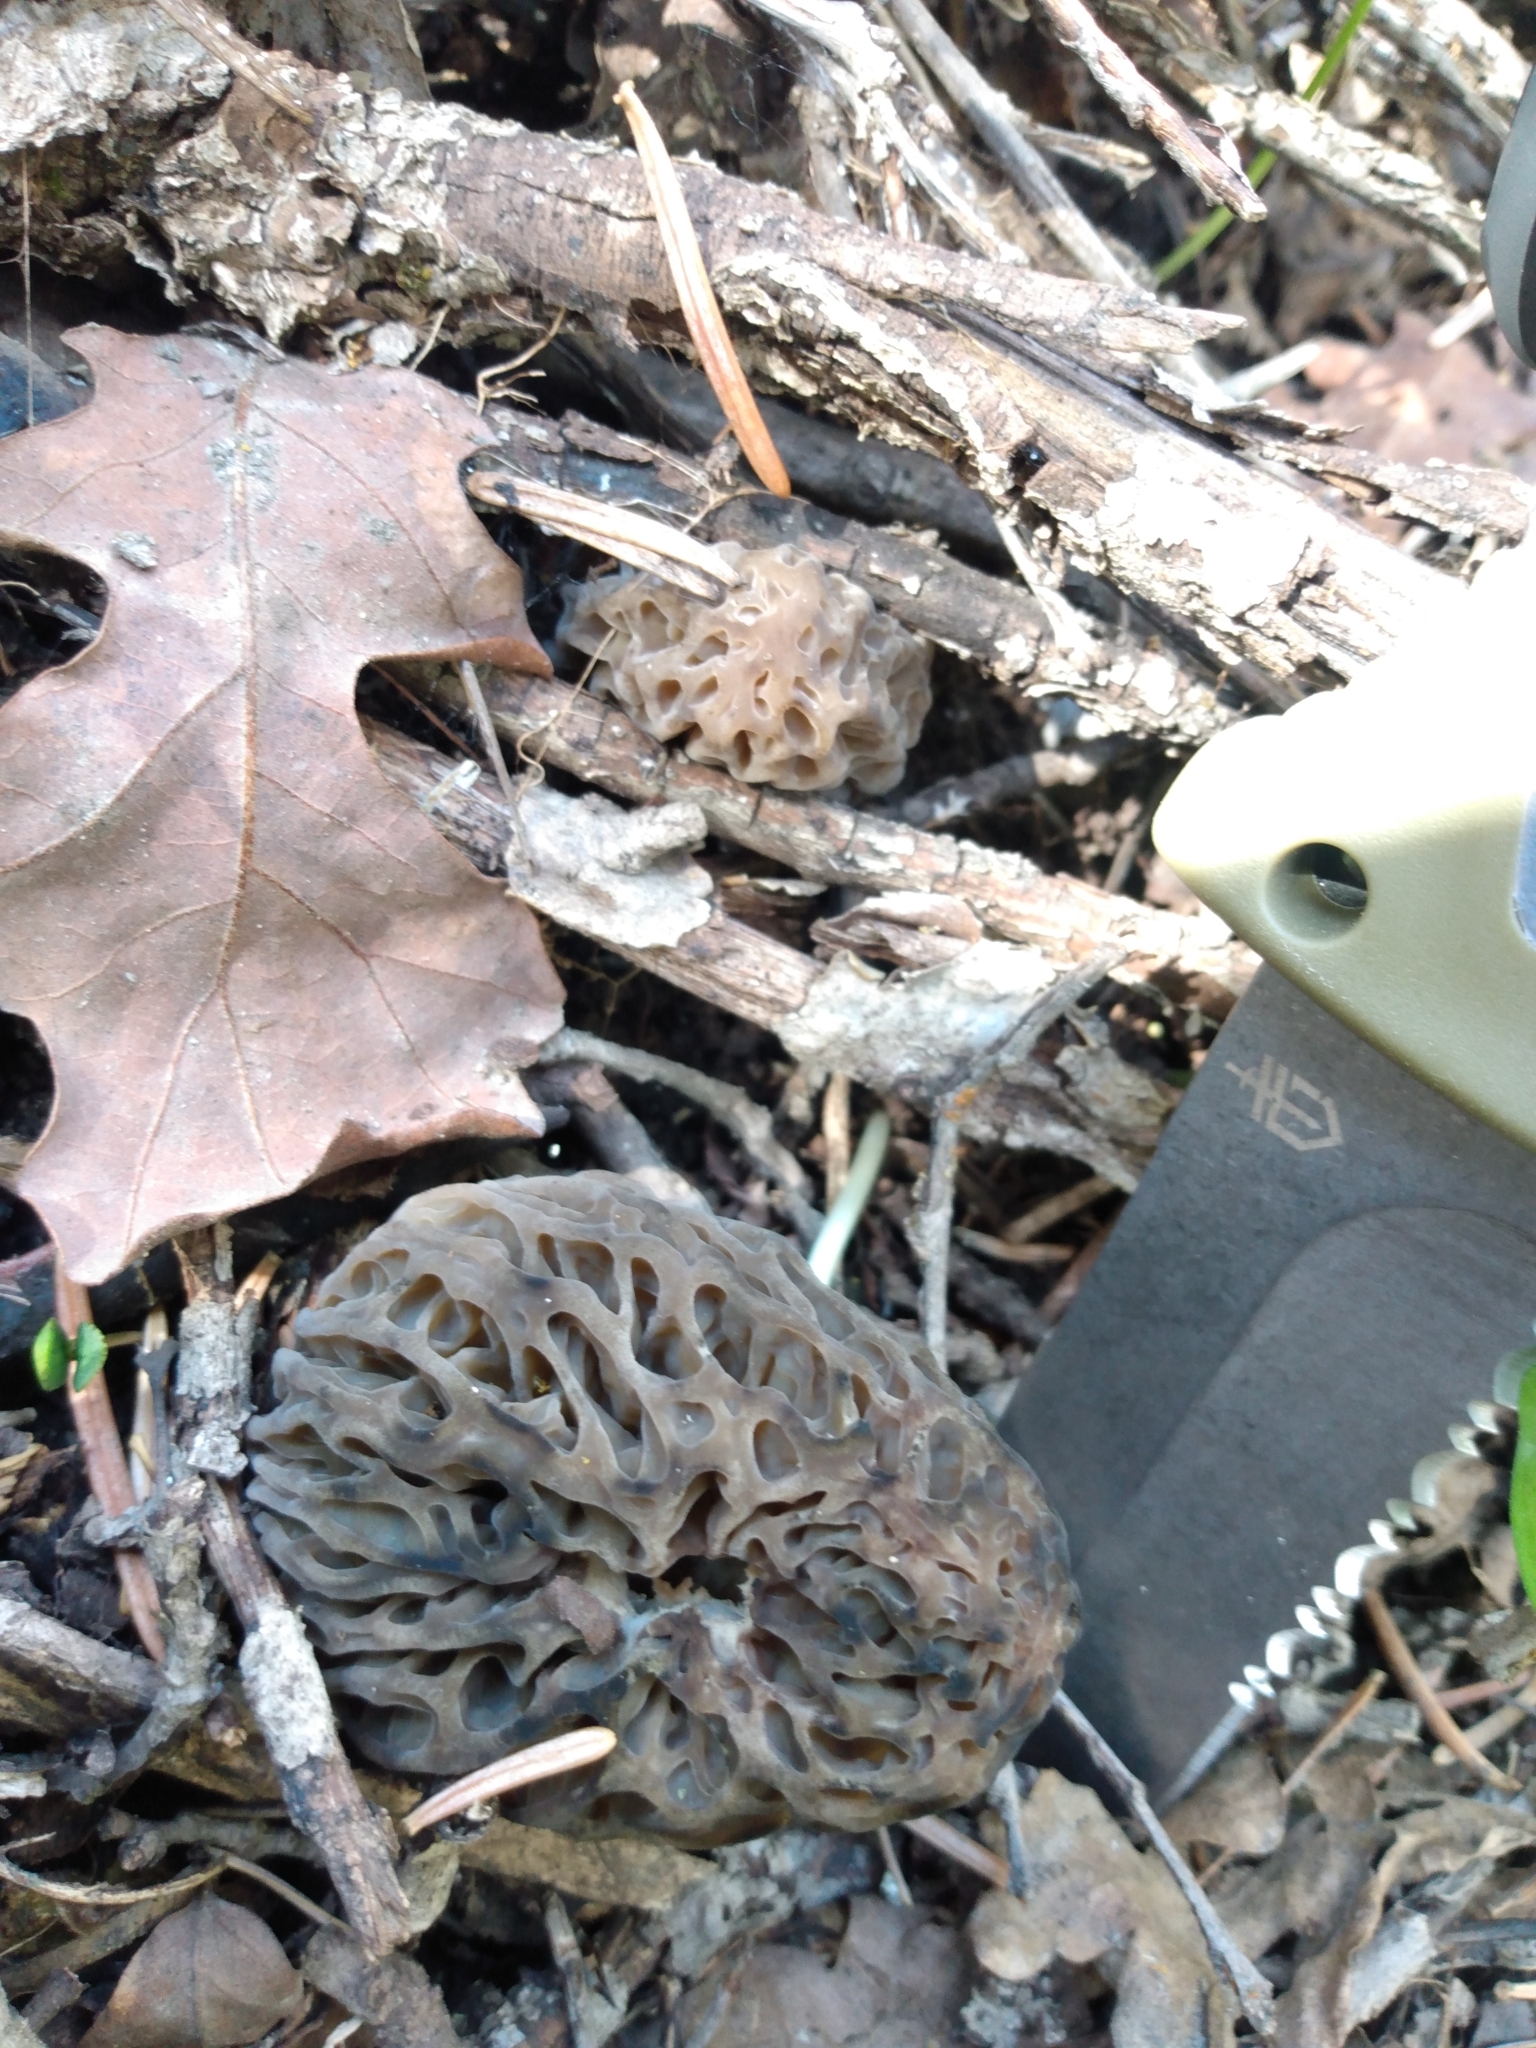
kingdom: Fungi
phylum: Ascomycota
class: Pezizomycetes
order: Pezizales
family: Morchellaceae
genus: Morchella
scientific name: Morchella snyderi
